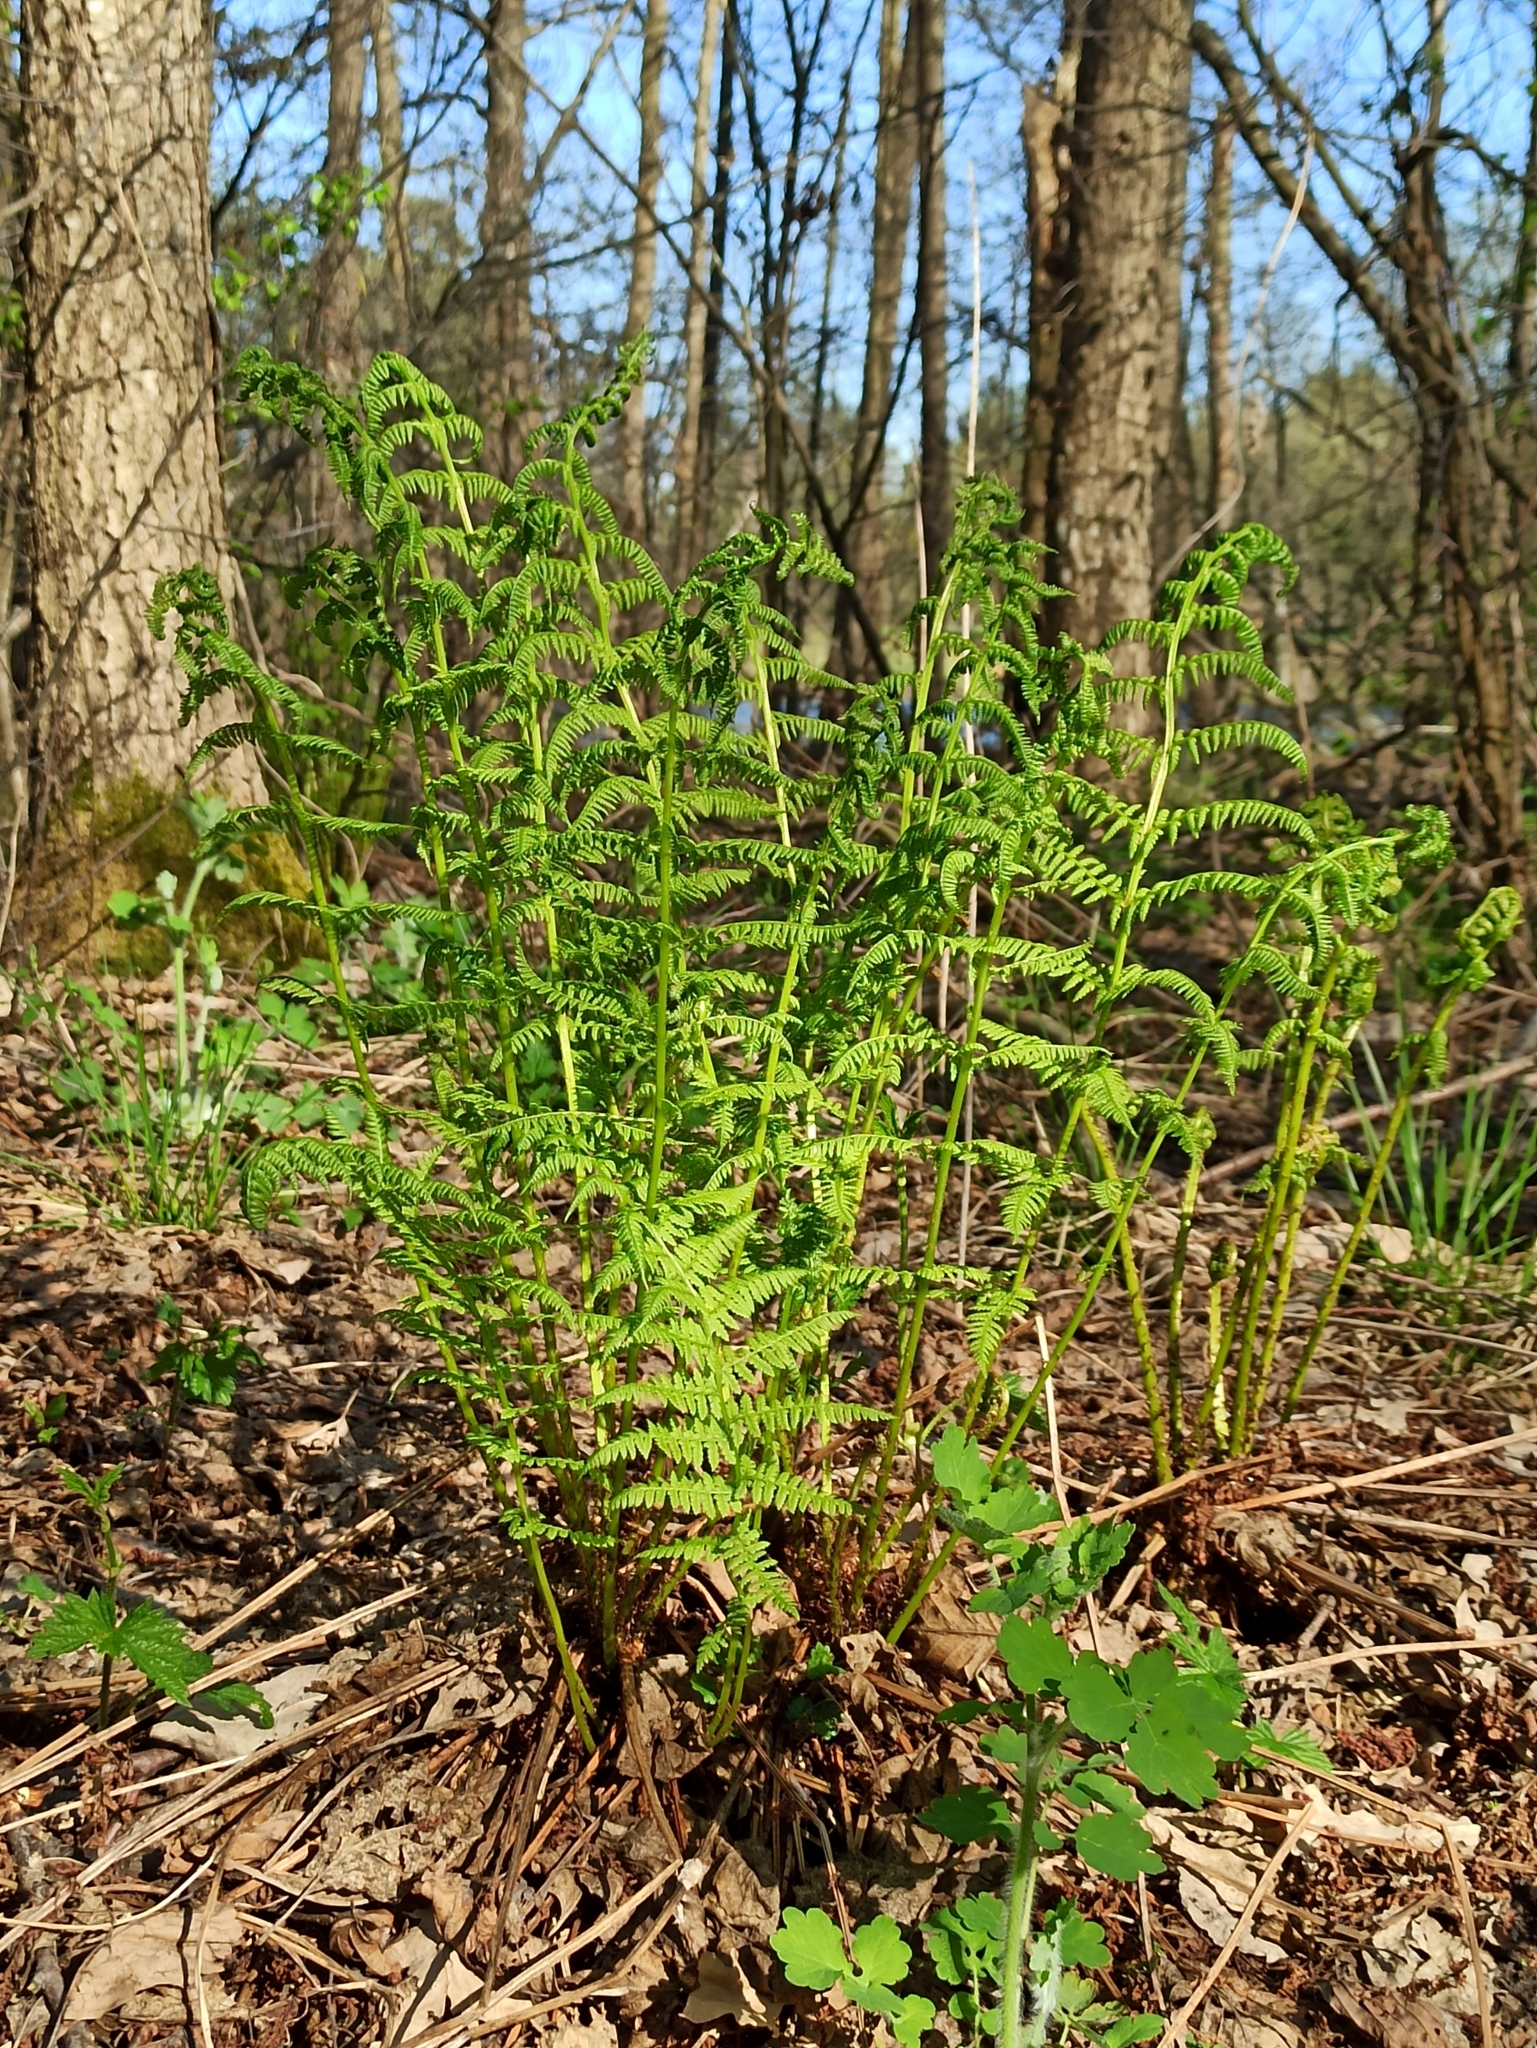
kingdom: Plantae
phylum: Tracheophyta
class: Polypodiopsida
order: Polypodiales
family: Athyriaceae
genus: Athyrium
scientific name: Athyrium filix-femina
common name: Lady fern
